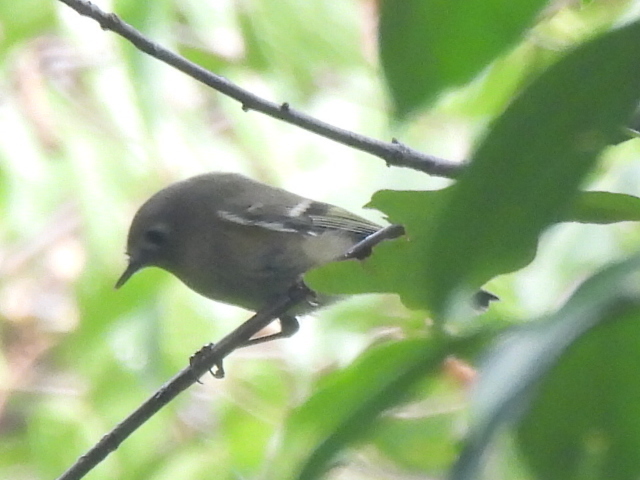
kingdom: Animalia
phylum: Chordata
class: Aves
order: Passeriformes
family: Regulidae
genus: Regulus
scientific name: Regulus calendula
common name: Ruby-crowned kinglet
